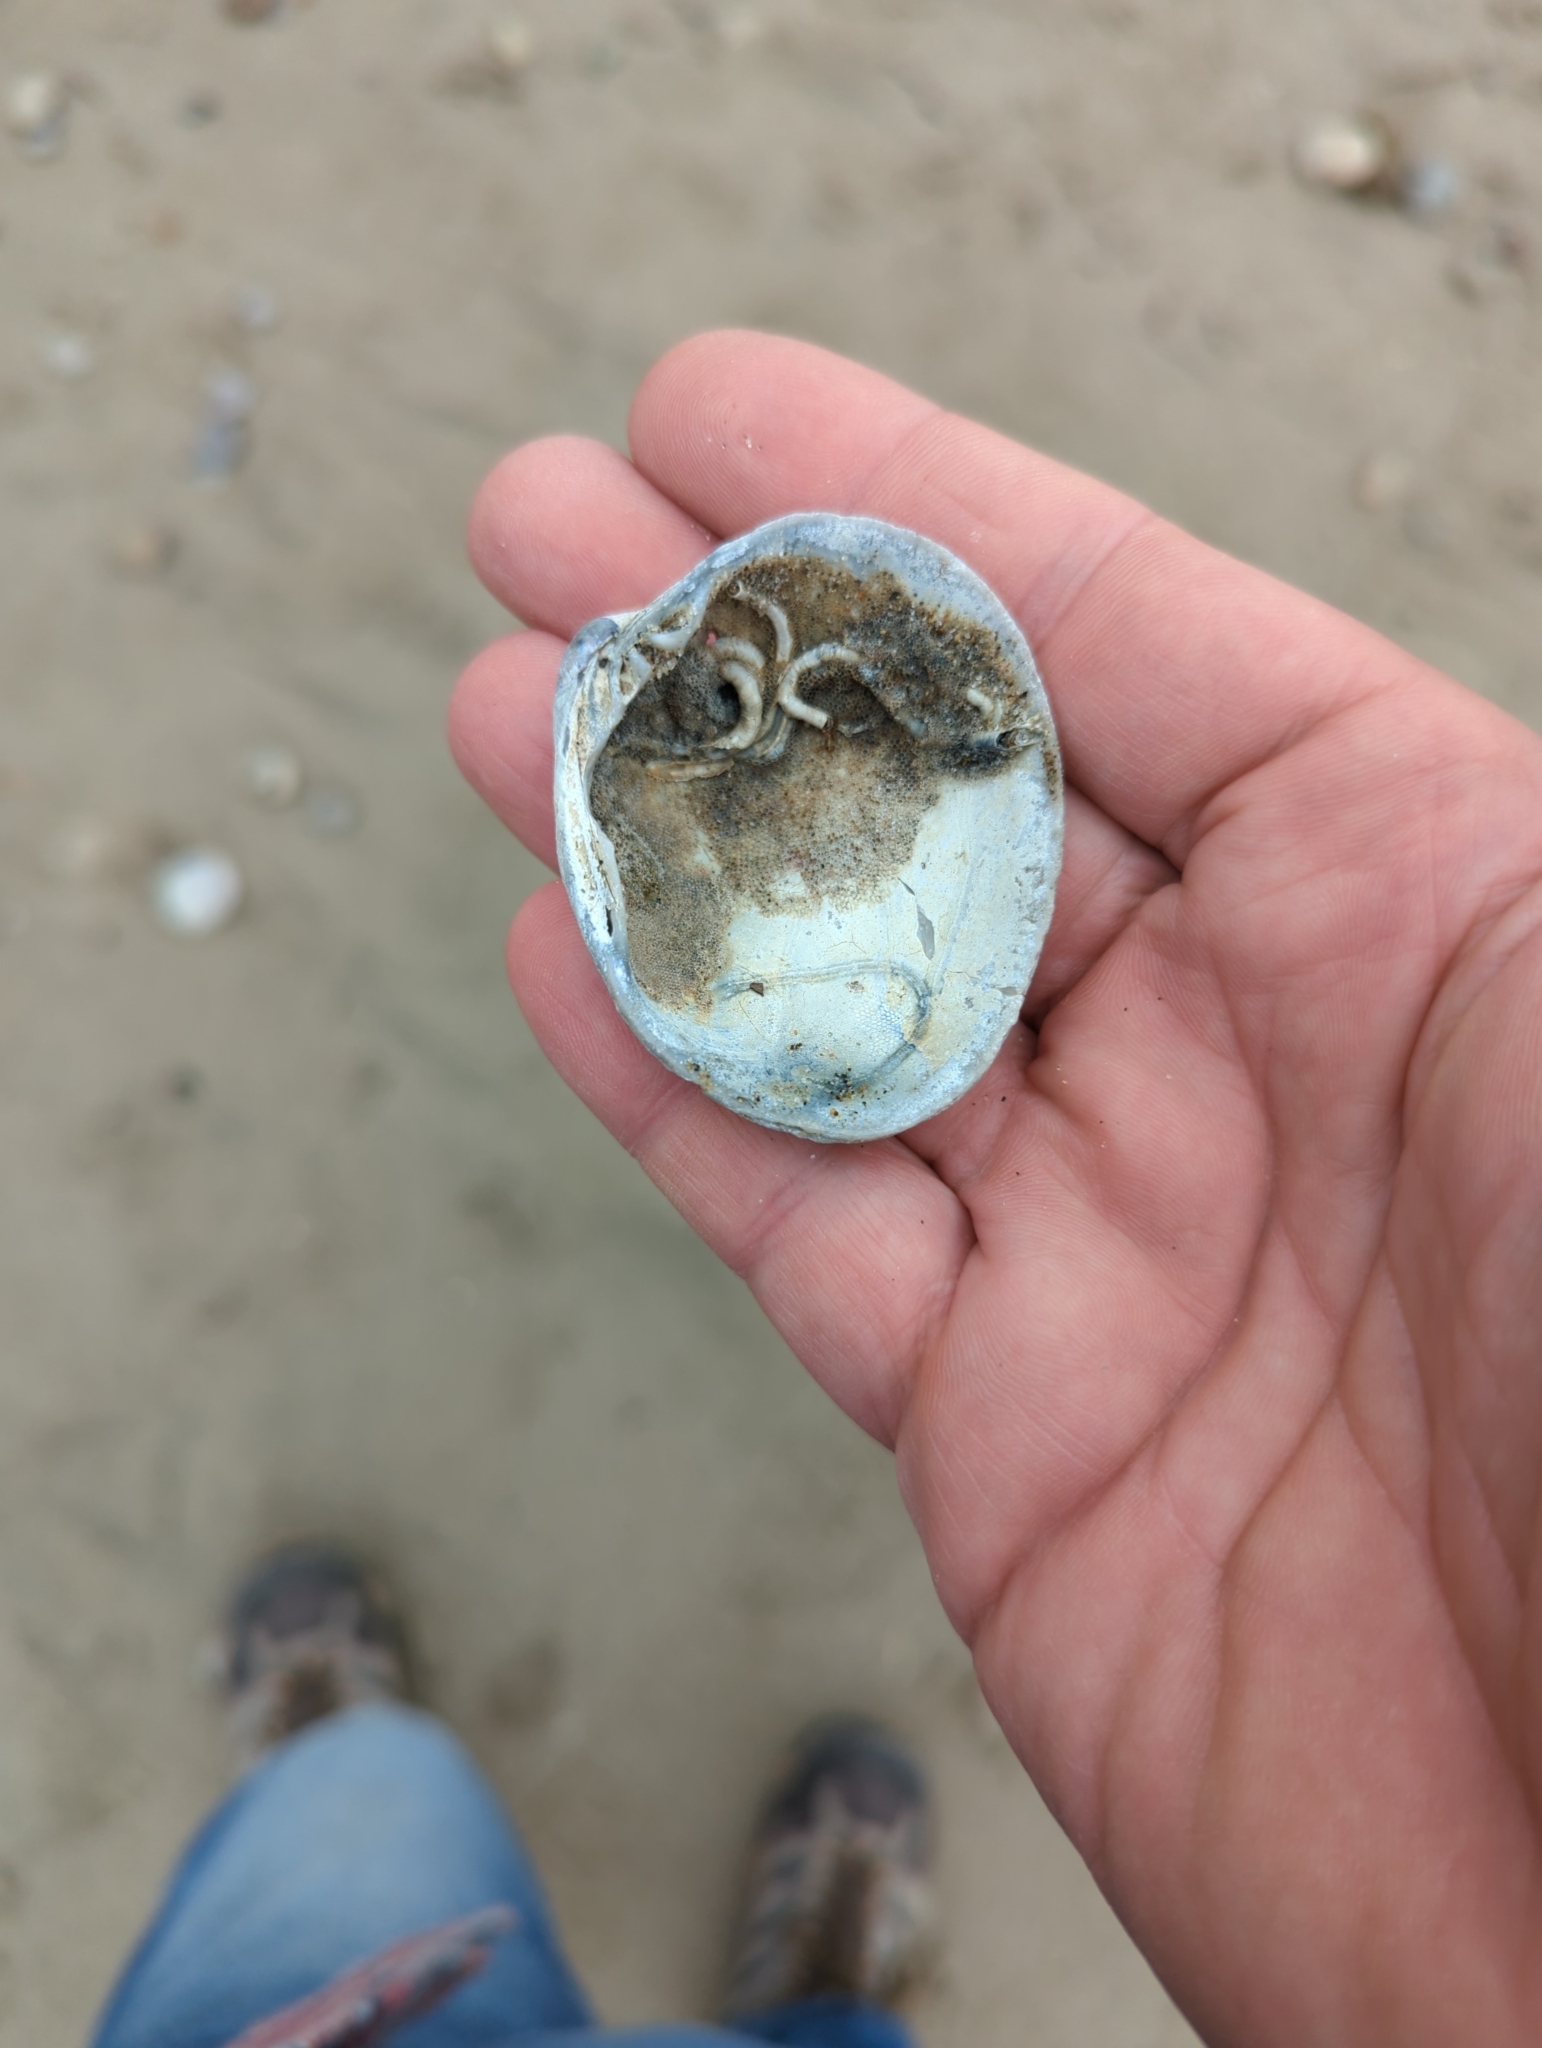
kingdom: Animalia
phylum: Mollusca
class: Bivalvia
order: Venerida
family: Veneridae
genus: Leukoma
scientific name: Leukoma staminea
